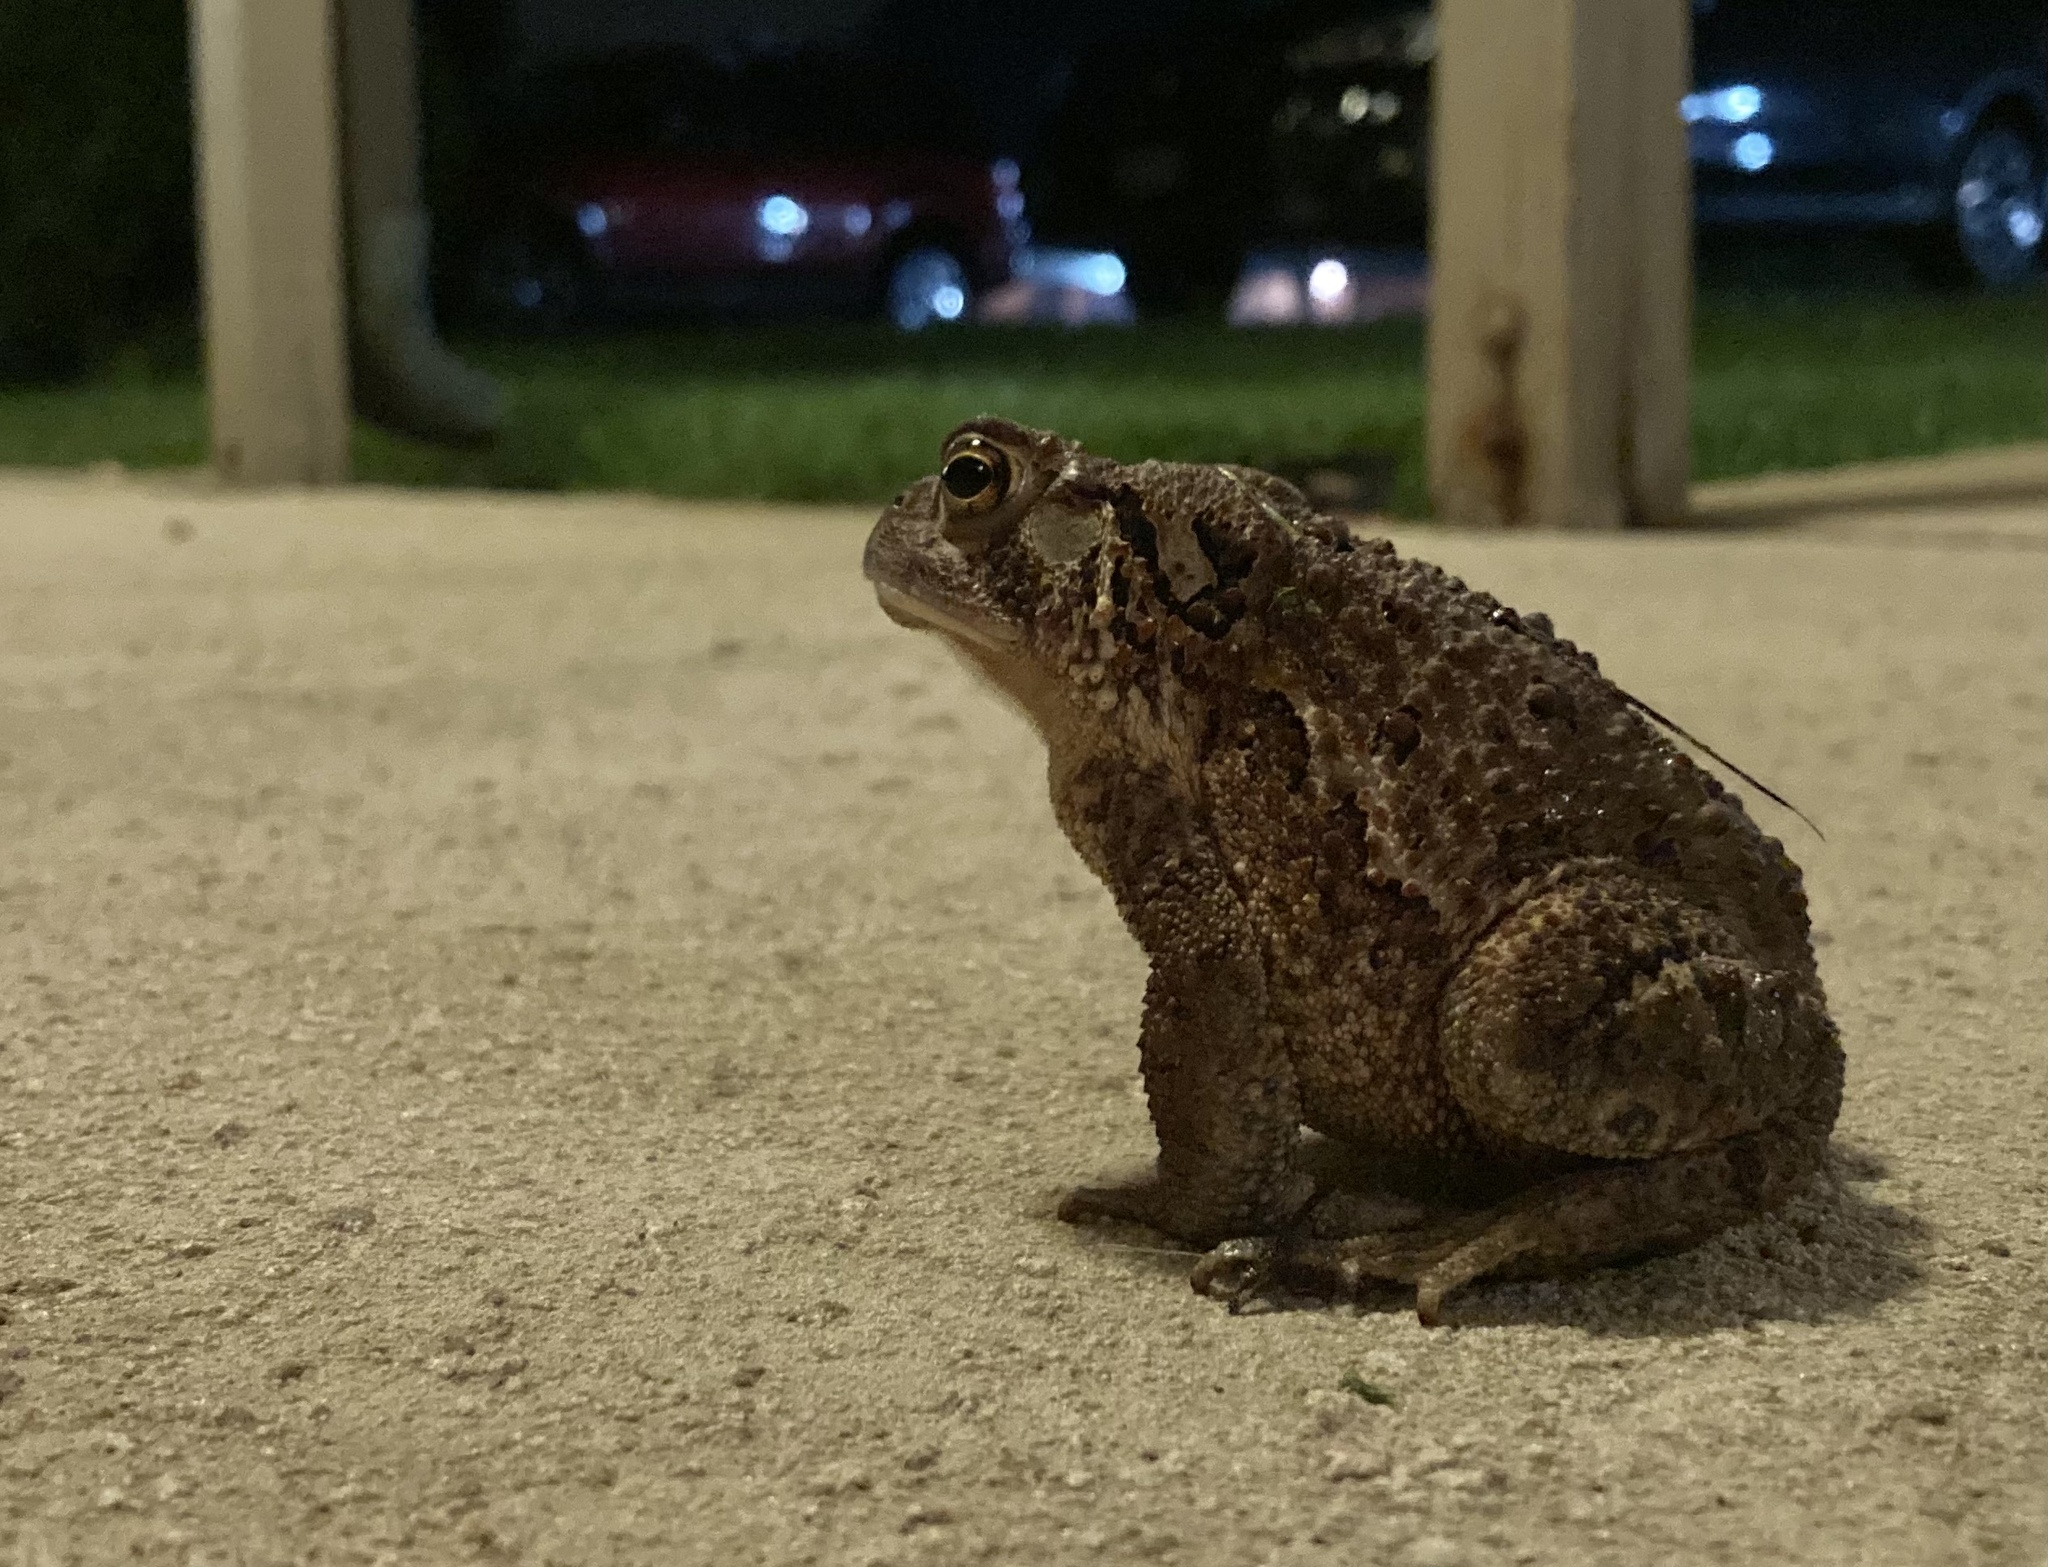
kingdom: Animalia
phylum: Chordata
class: Amphibia
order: Anura
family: Bufonidae
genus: Anaxyrus
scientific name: Anaxyrus americanus
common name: American toad
